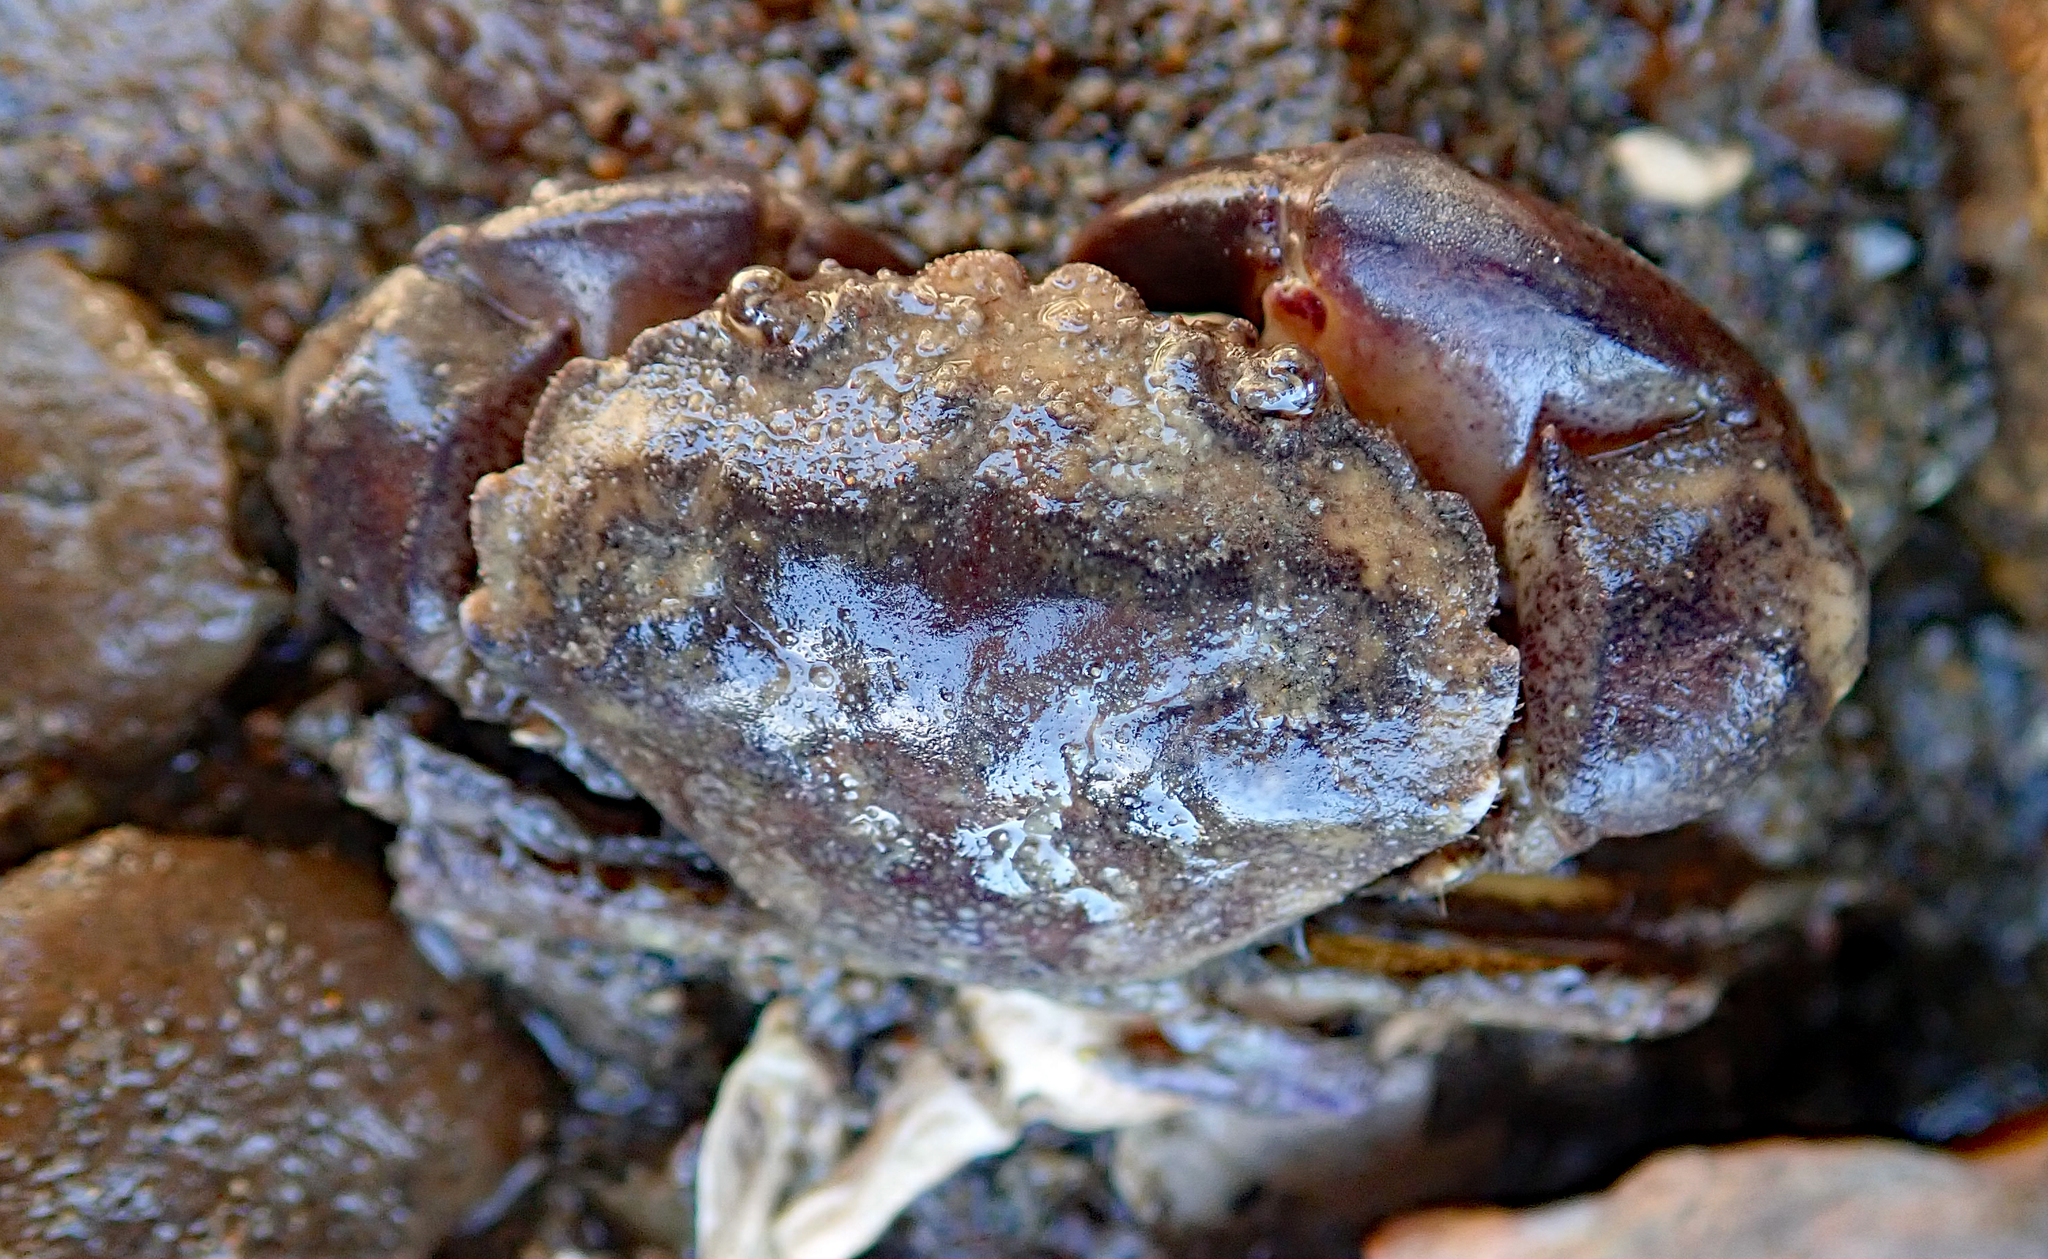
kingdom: Animalia
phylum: Arthropoda
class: Malacostraca
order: Decapoda
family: Pilumnidae
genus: Pilumnopeus
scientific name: Pilumnopeus serratifrons
